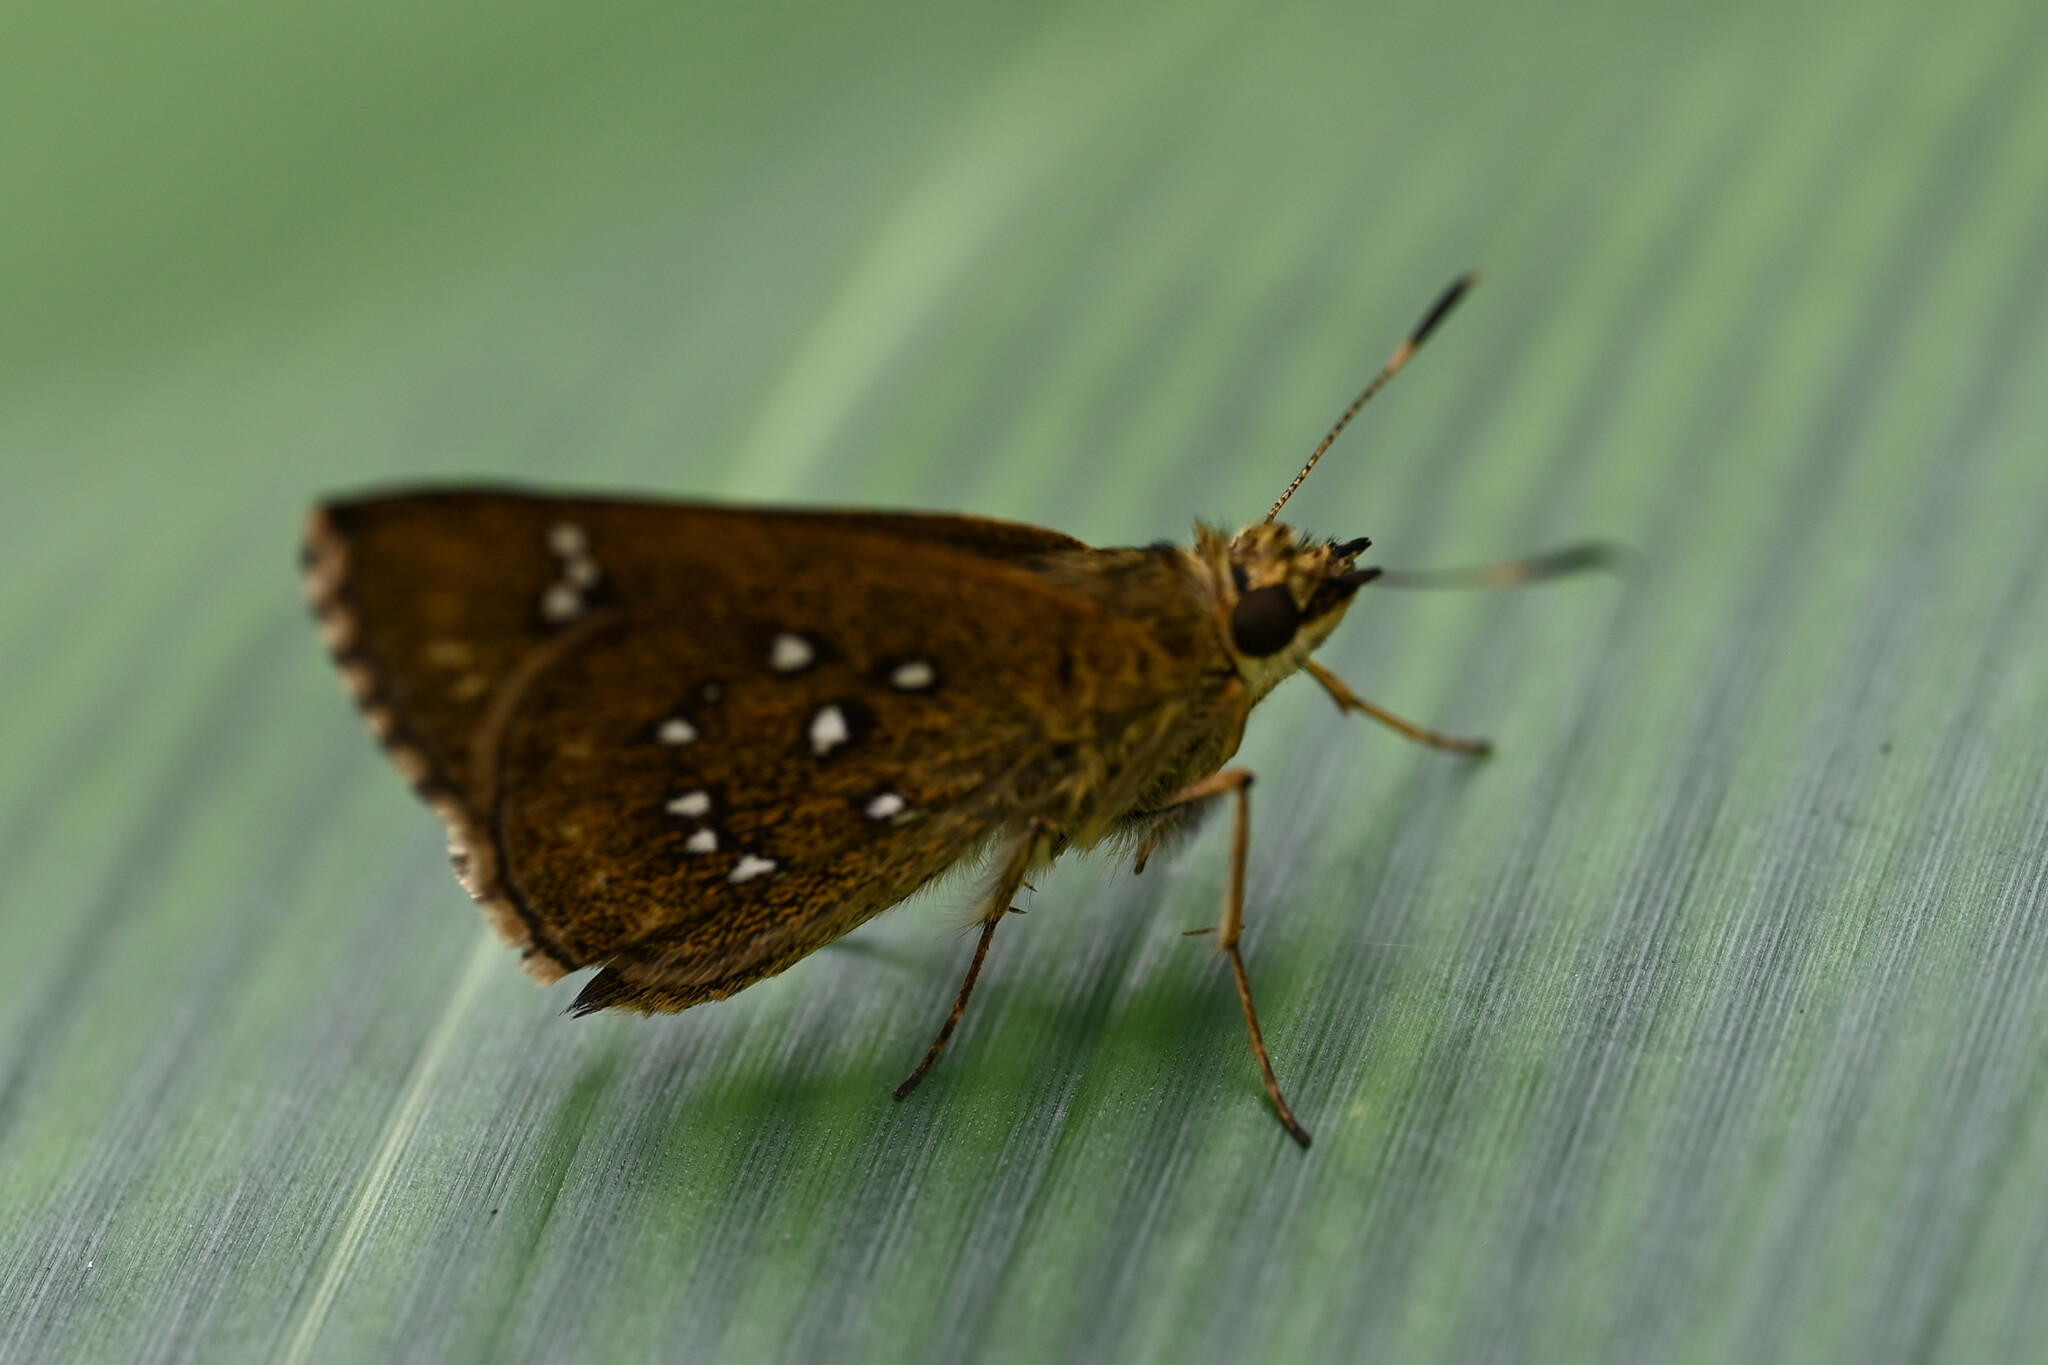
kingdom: Animalia
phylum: Arthropoda
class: Insecta
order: Lepidoptera
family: Hesperiidae
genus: Arnetta
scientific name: Arnetta atkinsoni
